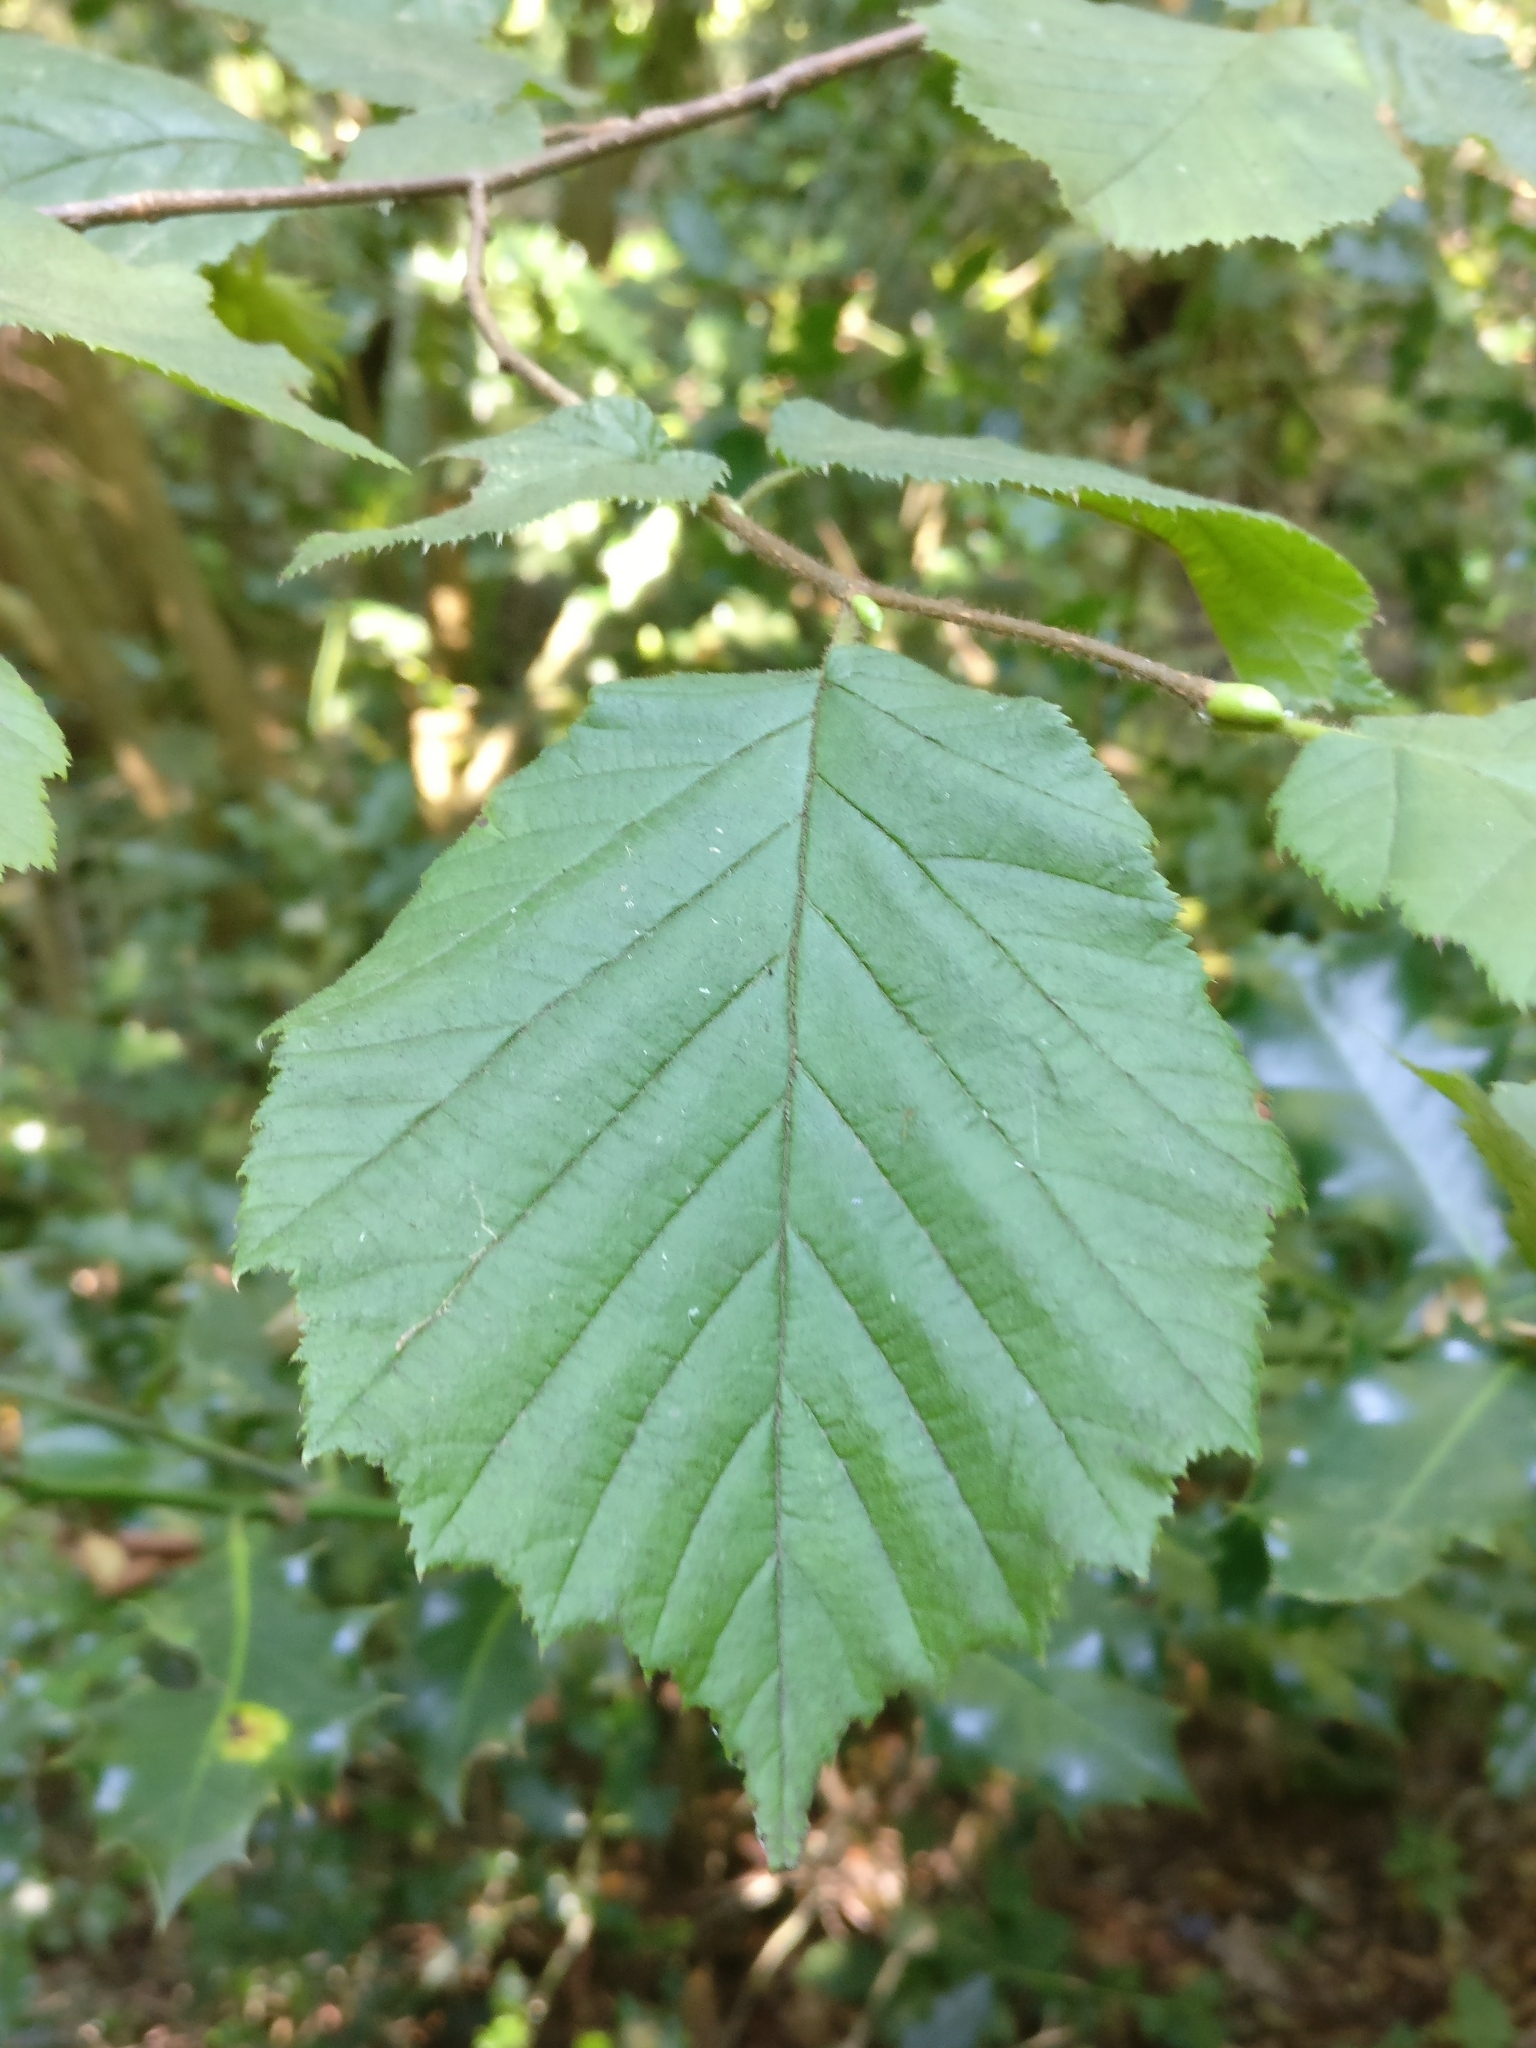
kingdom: Plantae
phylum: Tracheophyta
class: Magnoliopsida
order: Fagales
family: Betulaceae
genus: Corylus
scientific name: Corylus avellana
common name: European hazel
